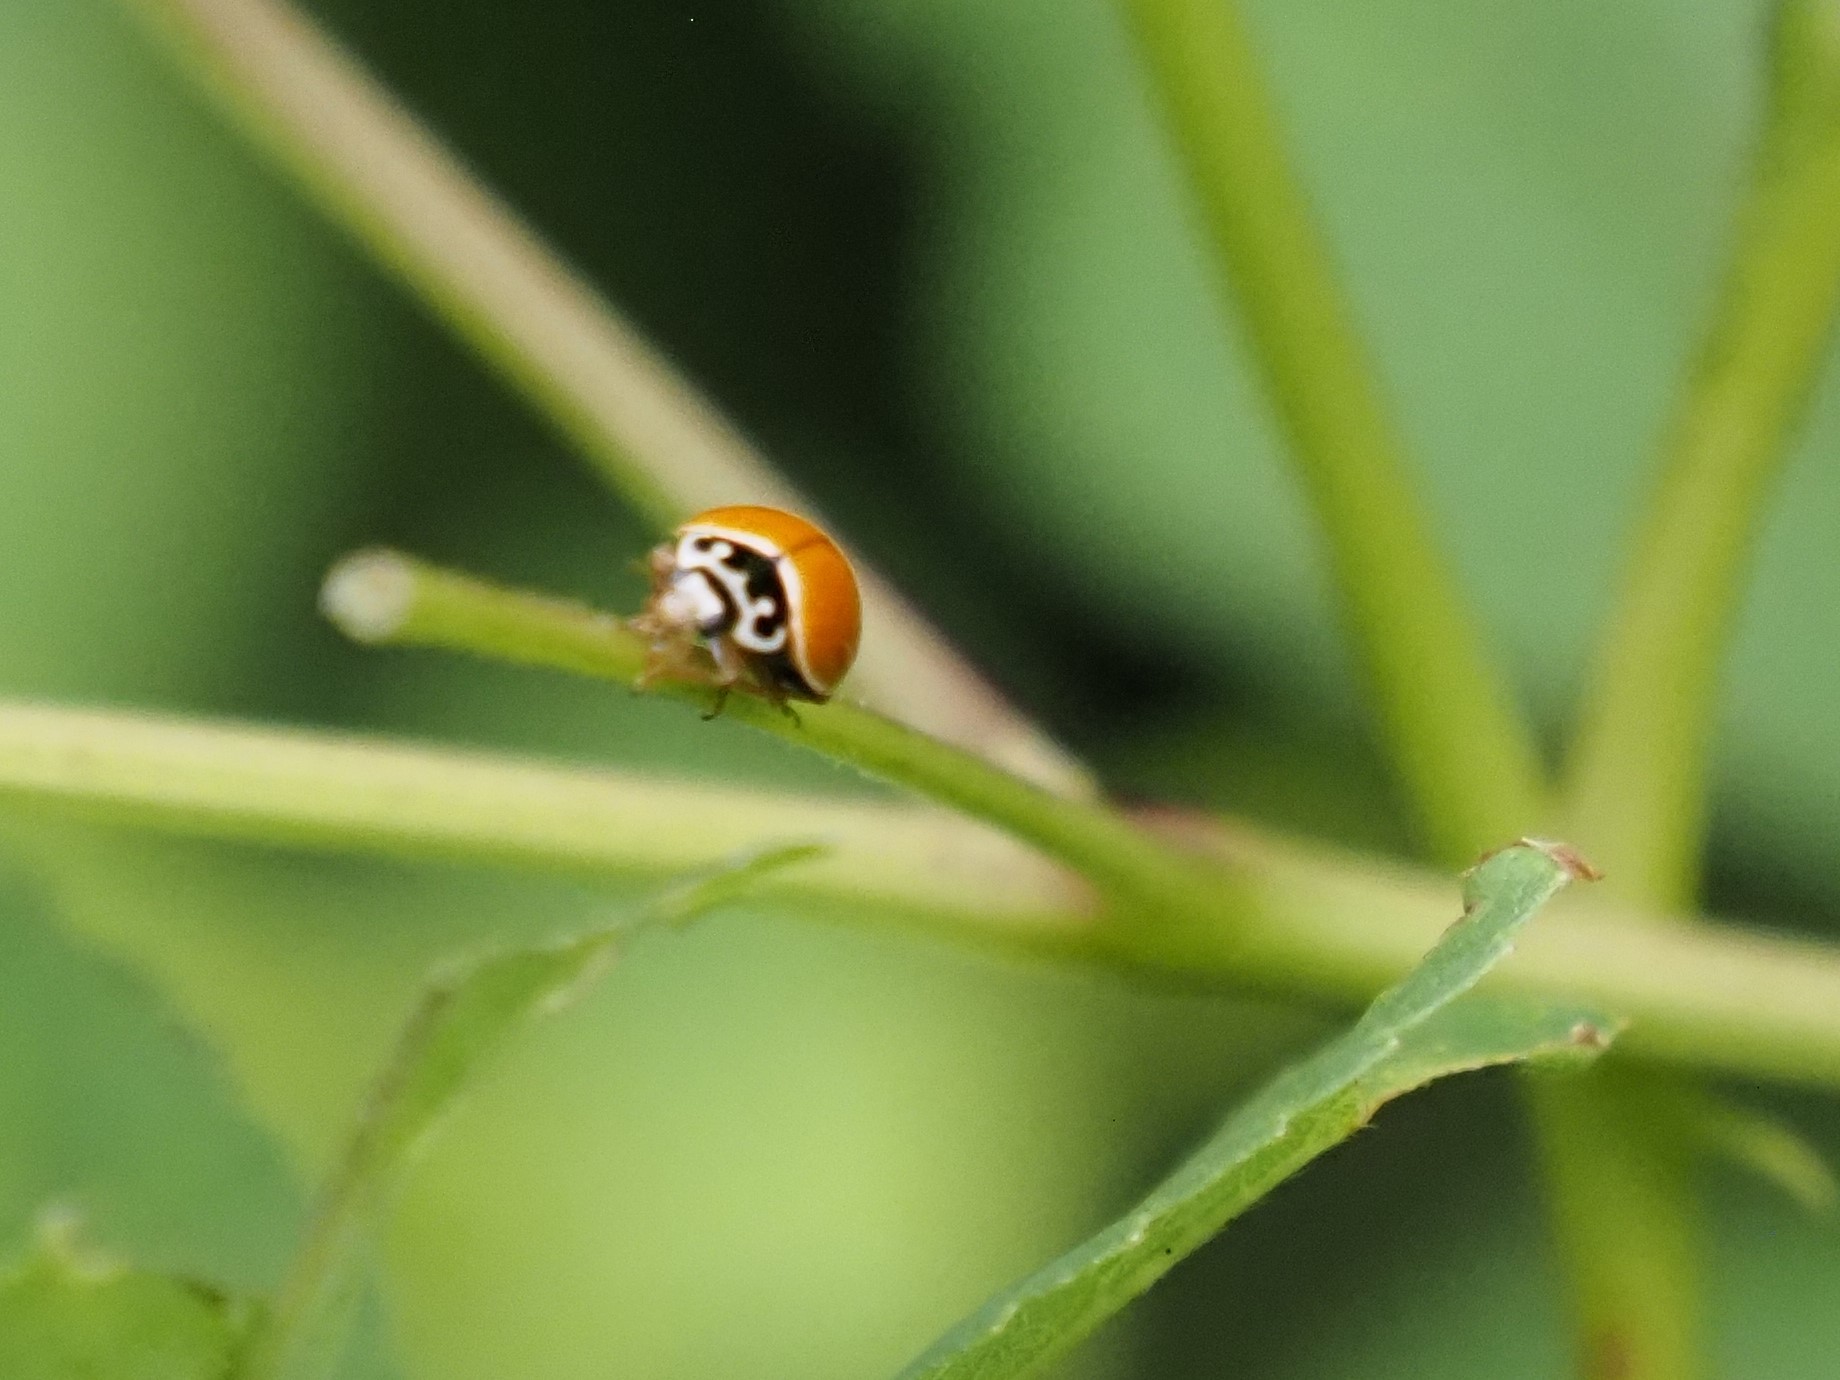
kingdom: Animalia
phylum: Arthropoda
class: Insecta
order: Coleoptera
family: Coccinellidae
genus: Cycloneda
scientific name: Cycloneda munda
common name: Polished lady beetle
